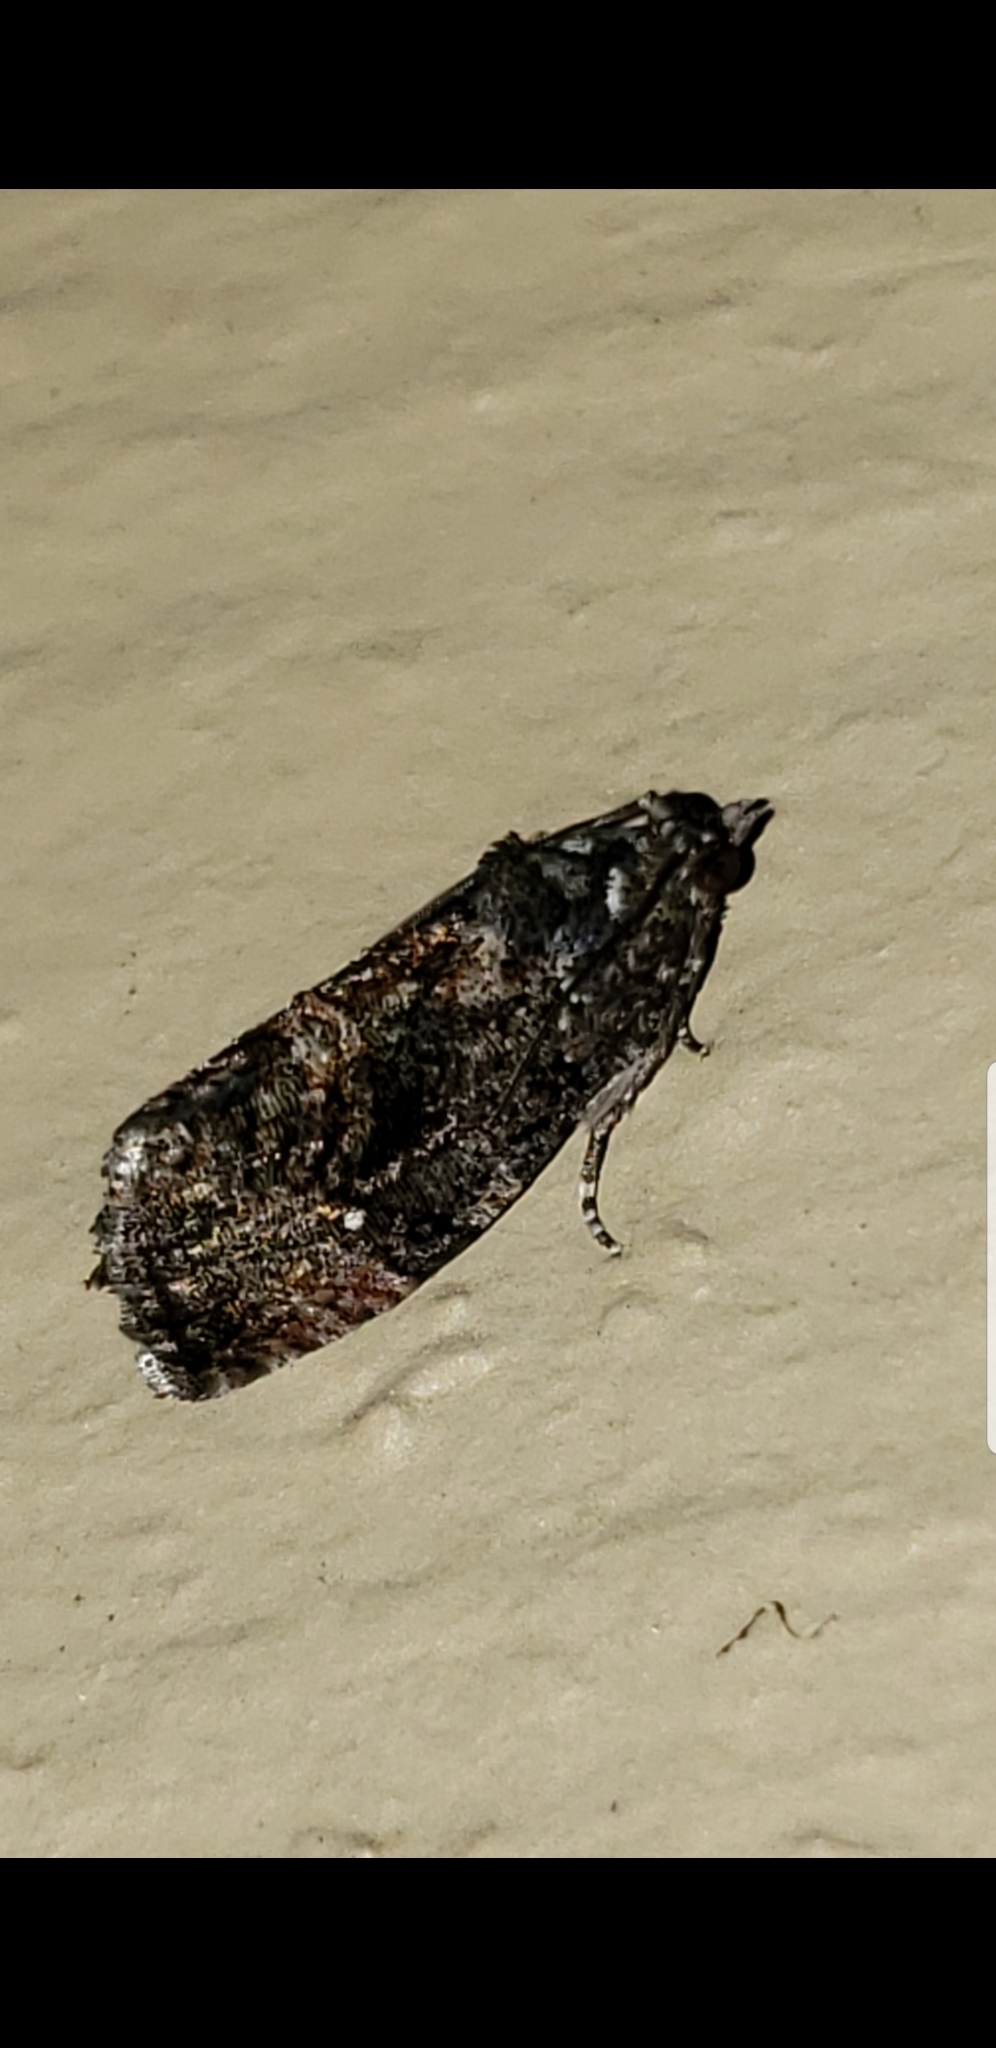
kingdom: Animalia
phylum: Arthropoda
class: Insecta
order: Lepidoptera
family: Tortricidae
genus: Gymnandrosoma
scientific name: Gymnandrosoma punctidiscanum
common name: Dotted ecdytolopha moth
